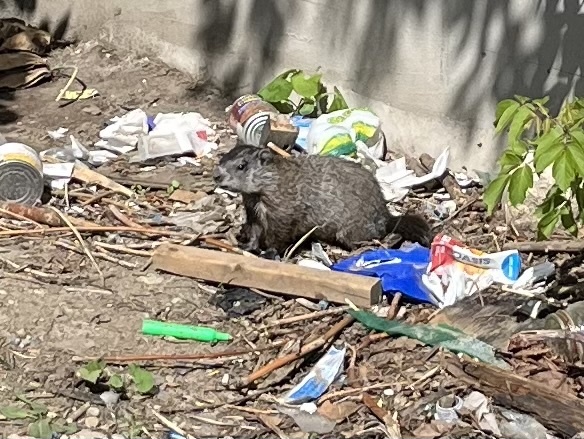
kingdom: Animalia
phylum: Chordata
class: Mammalia
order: Rodentia
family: Sciuridae
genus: Marmota
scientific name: Marmota monax
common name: Groundhog
